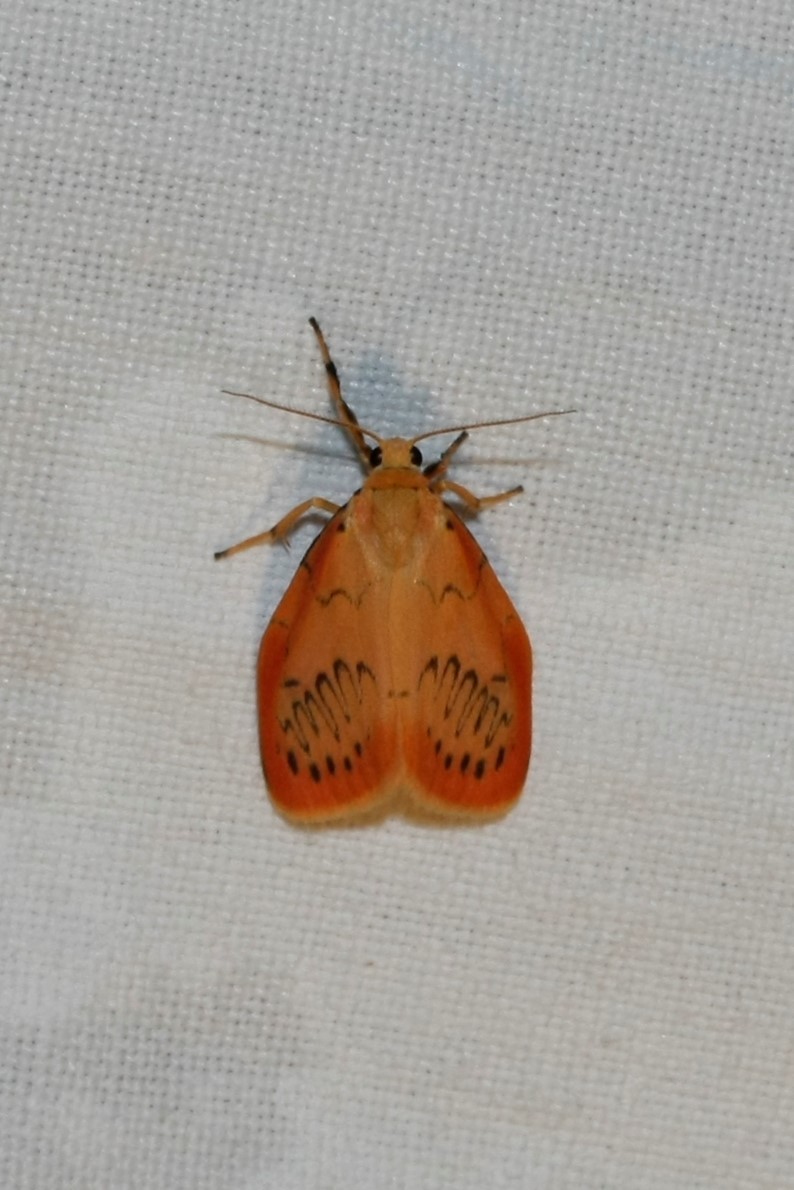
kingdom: Animalia
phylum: Arthropoda
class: Insecta
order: Lepidoptera
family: Erebidae
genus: Miltochrista
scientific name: Miltochrista miniata
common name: Rosy footman
